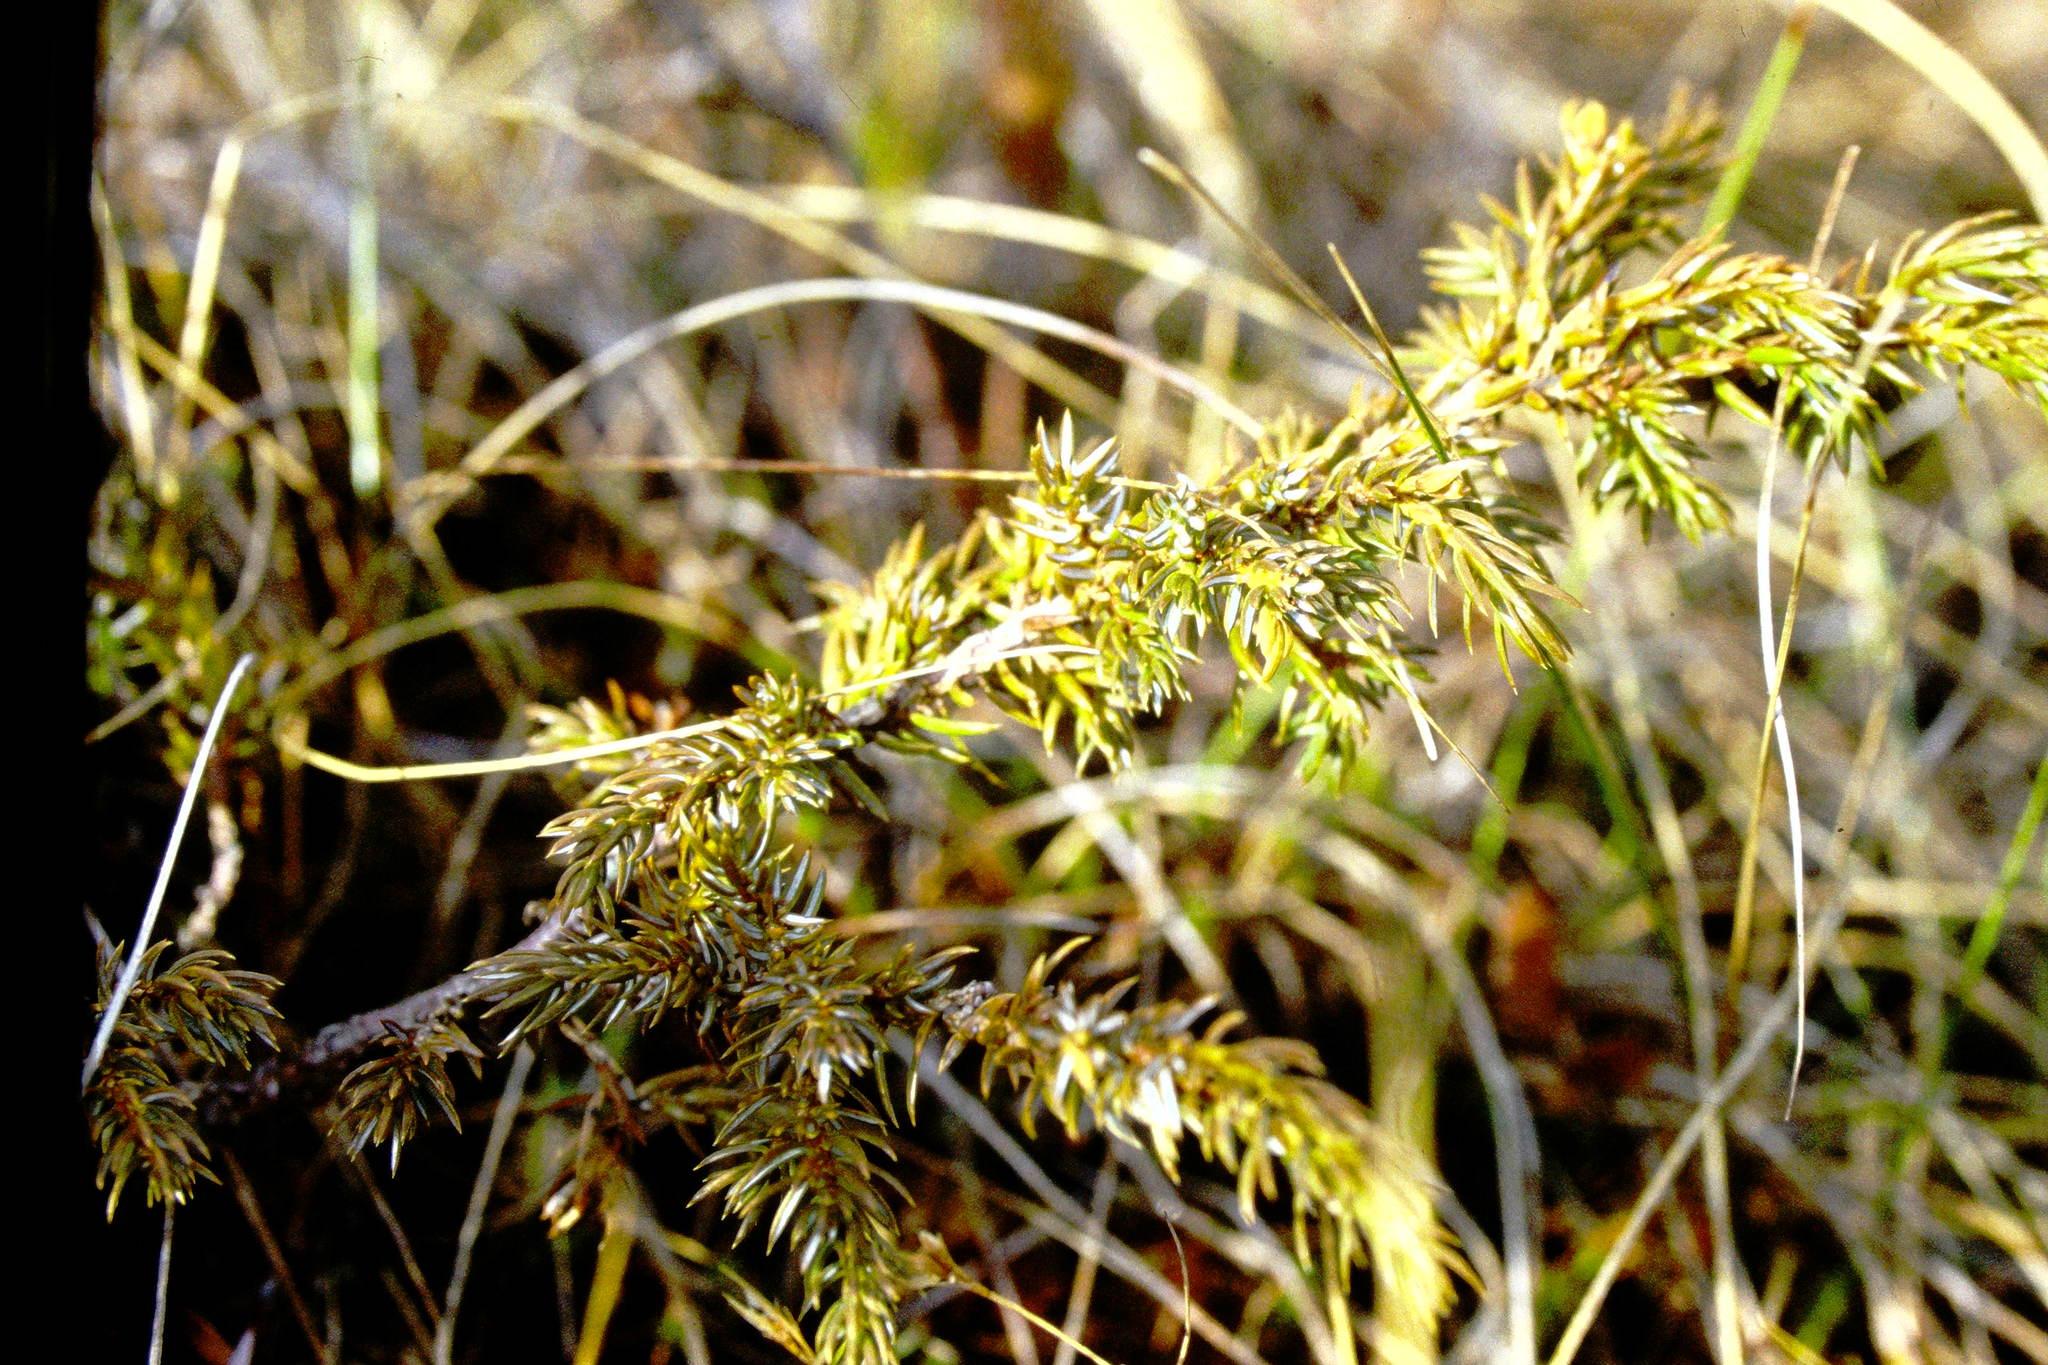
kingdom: Plantae
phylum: Tracheophyta
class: Pinopsida
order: Pinales
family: Cupressaceae
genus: Juniperus
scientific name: Juniperus communis
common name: Common juniper
